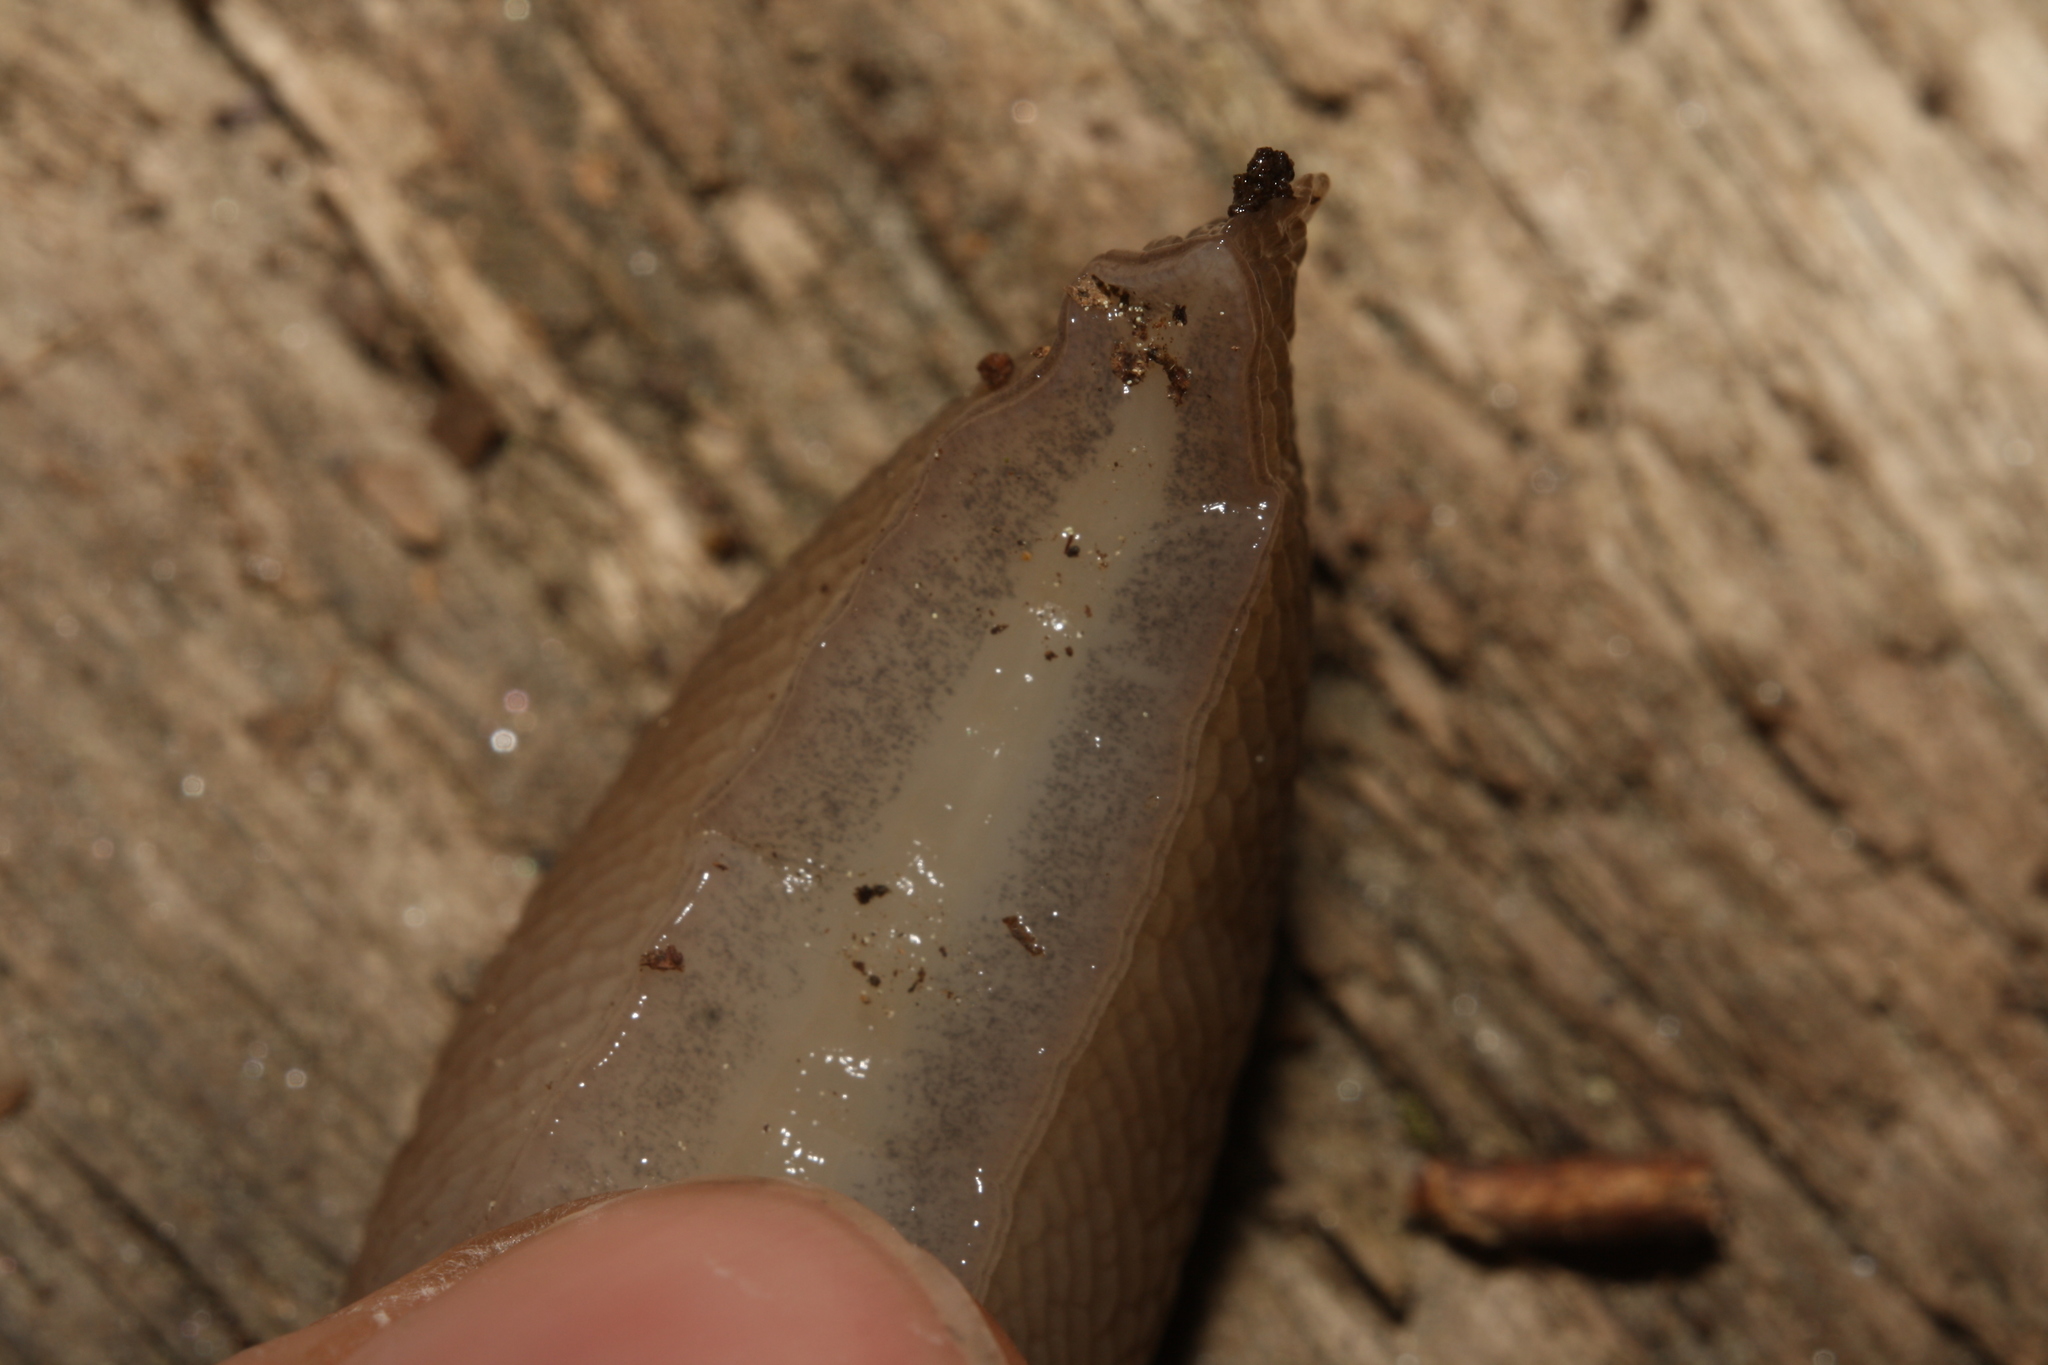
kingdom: Animalia
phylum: Mollusca
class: Gastropoda
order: Stylommatophora
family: Limacidae
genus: Limax
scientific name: Limax cinereoniger
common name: Ash-black slug
